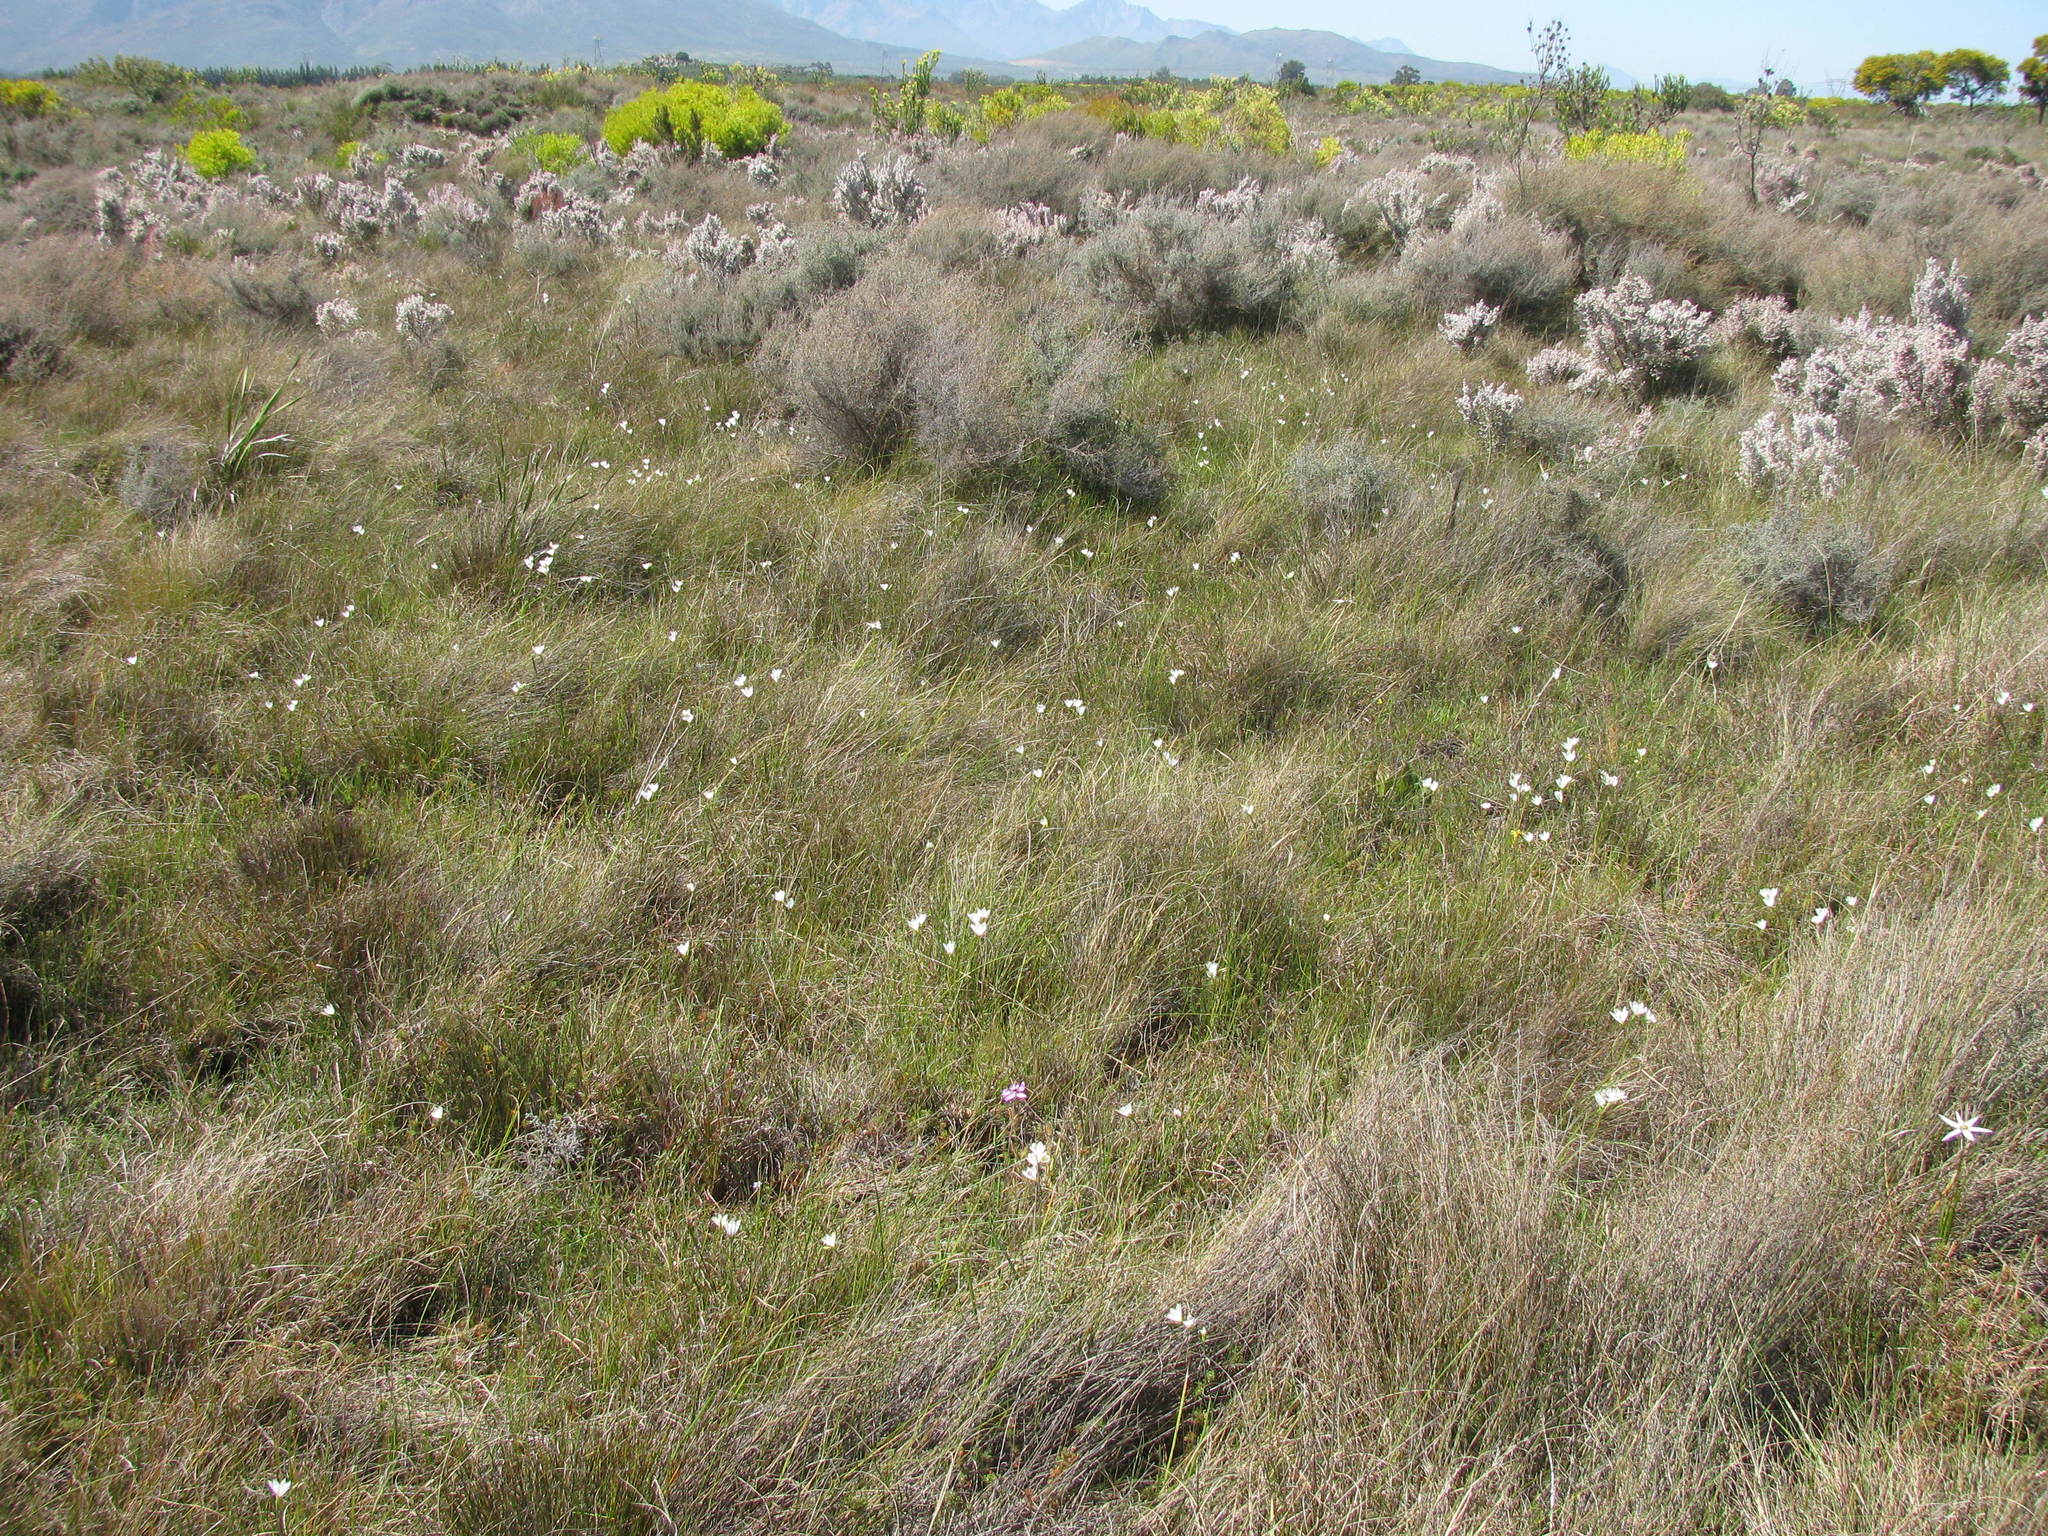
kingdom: Plantae
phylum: Tracheophyta
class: Liliopsida
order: Asparagales
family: Iridaceae
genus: Geissorhiza
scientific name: Geissorhiza erosa
